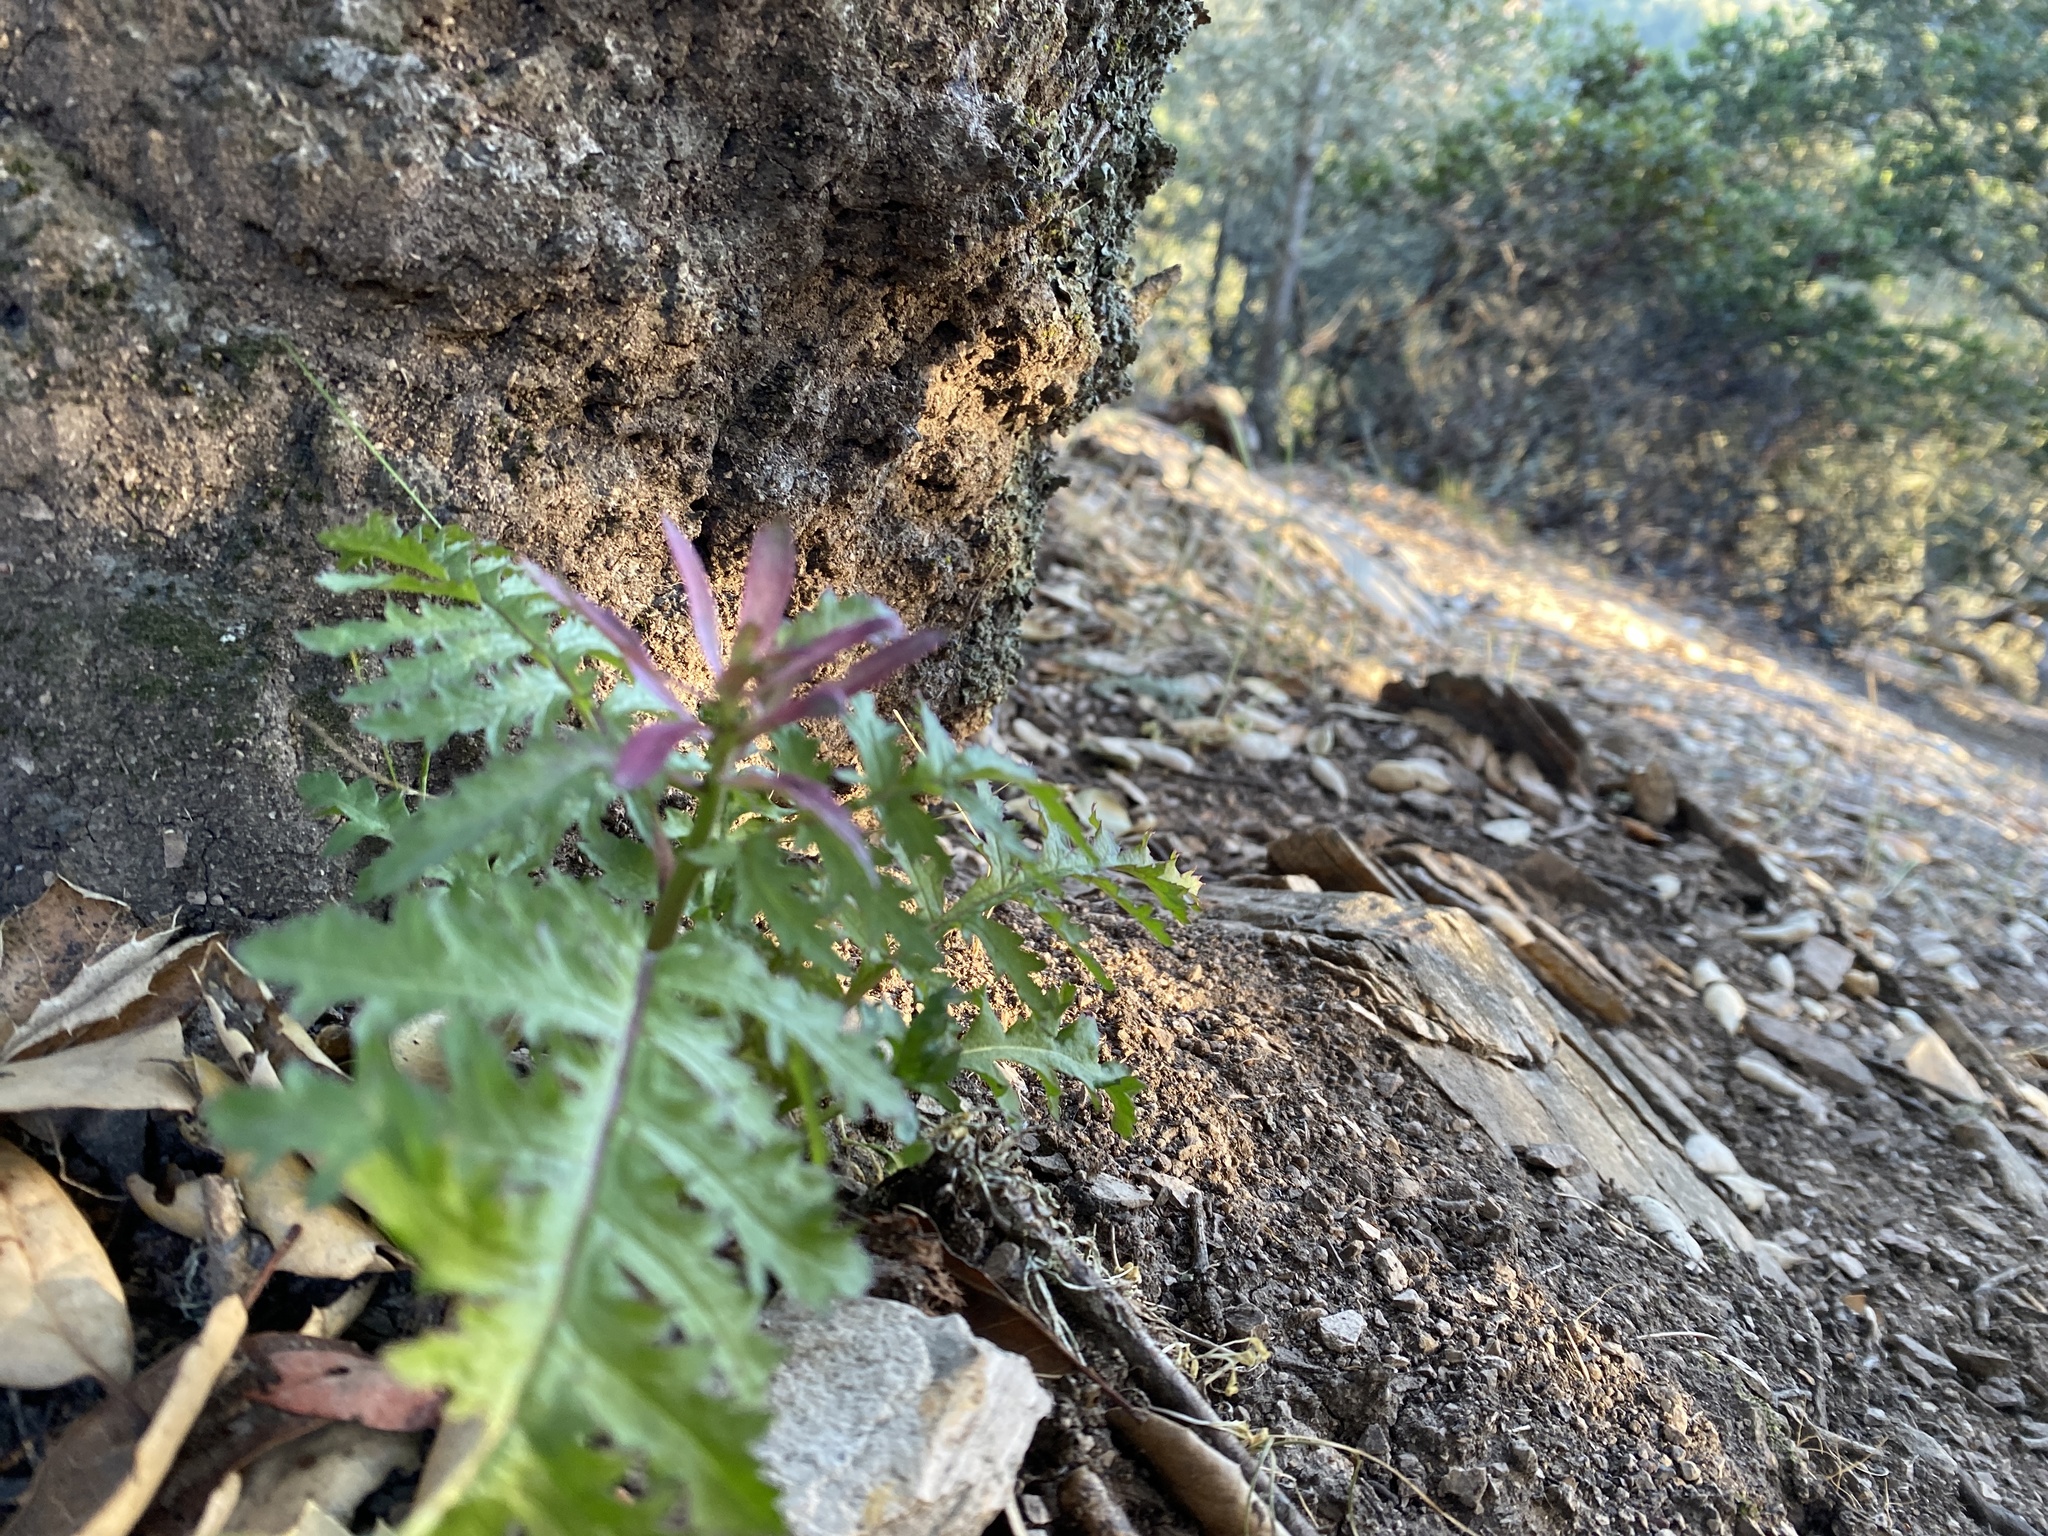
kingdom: Plantae
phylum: Tracheophyta
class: Magnoliopsida
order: Lamiales
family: Orobanchaceae
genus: Pedicularis
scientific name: Pedicularis densiflora
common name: Indian warrior
